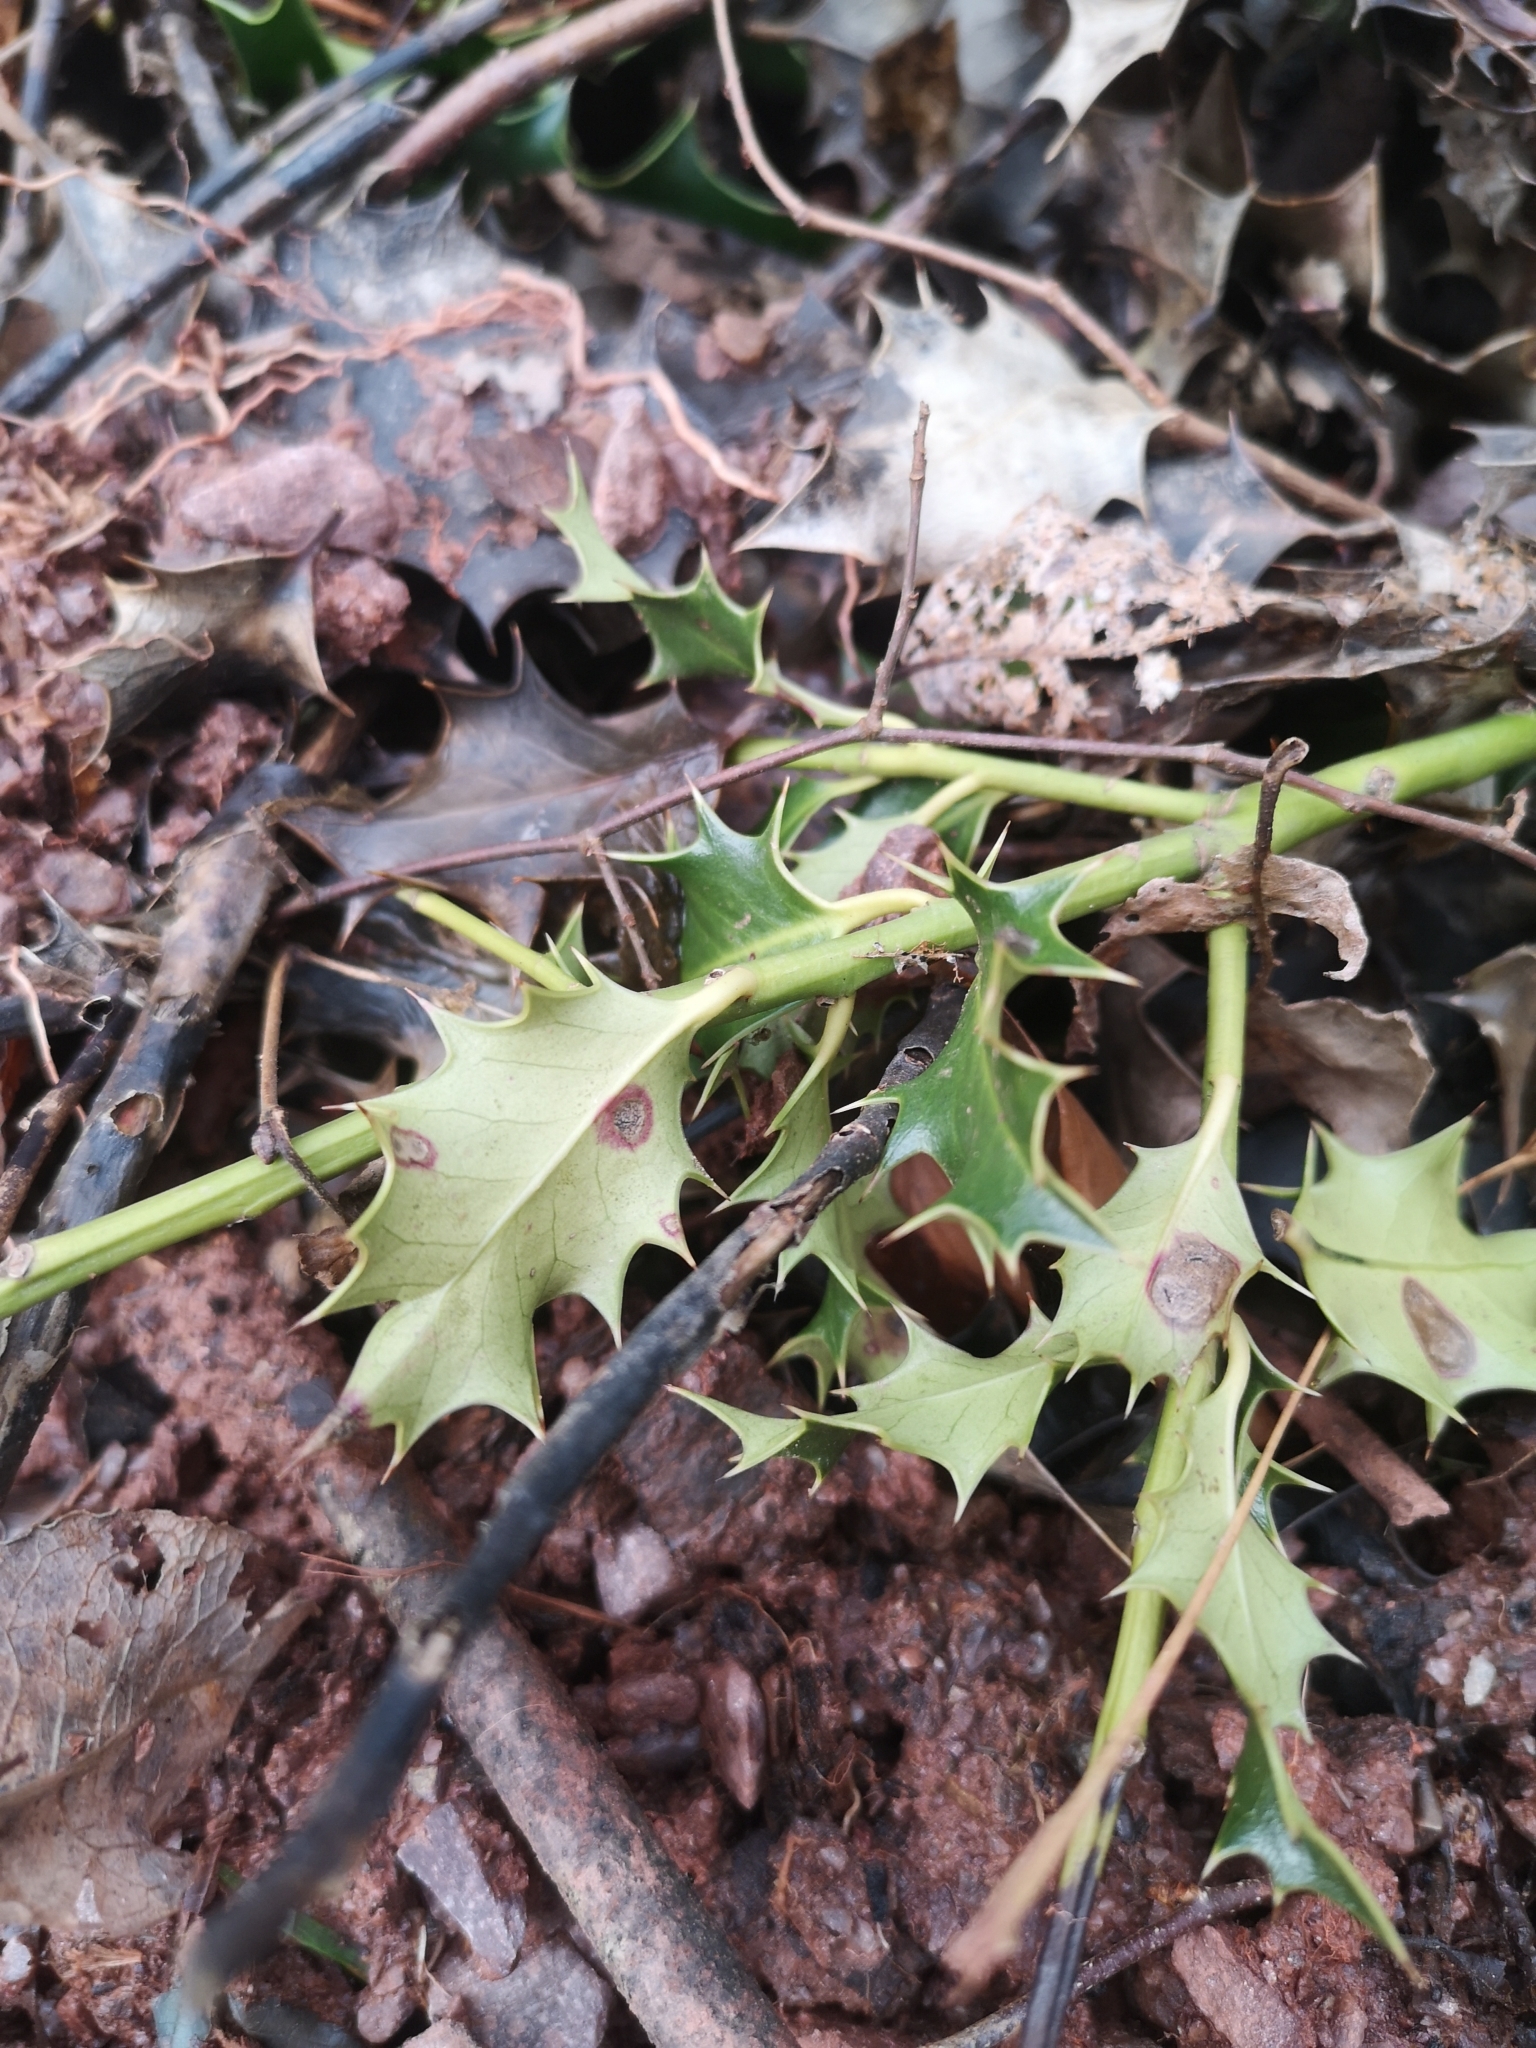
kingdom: Plantae
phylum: Tracheophyta
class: Magnoliopsida
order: Aquifoliales
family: Aquifoliaceae
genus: Ilex
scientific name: Ilex aquifolium
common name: English holly
